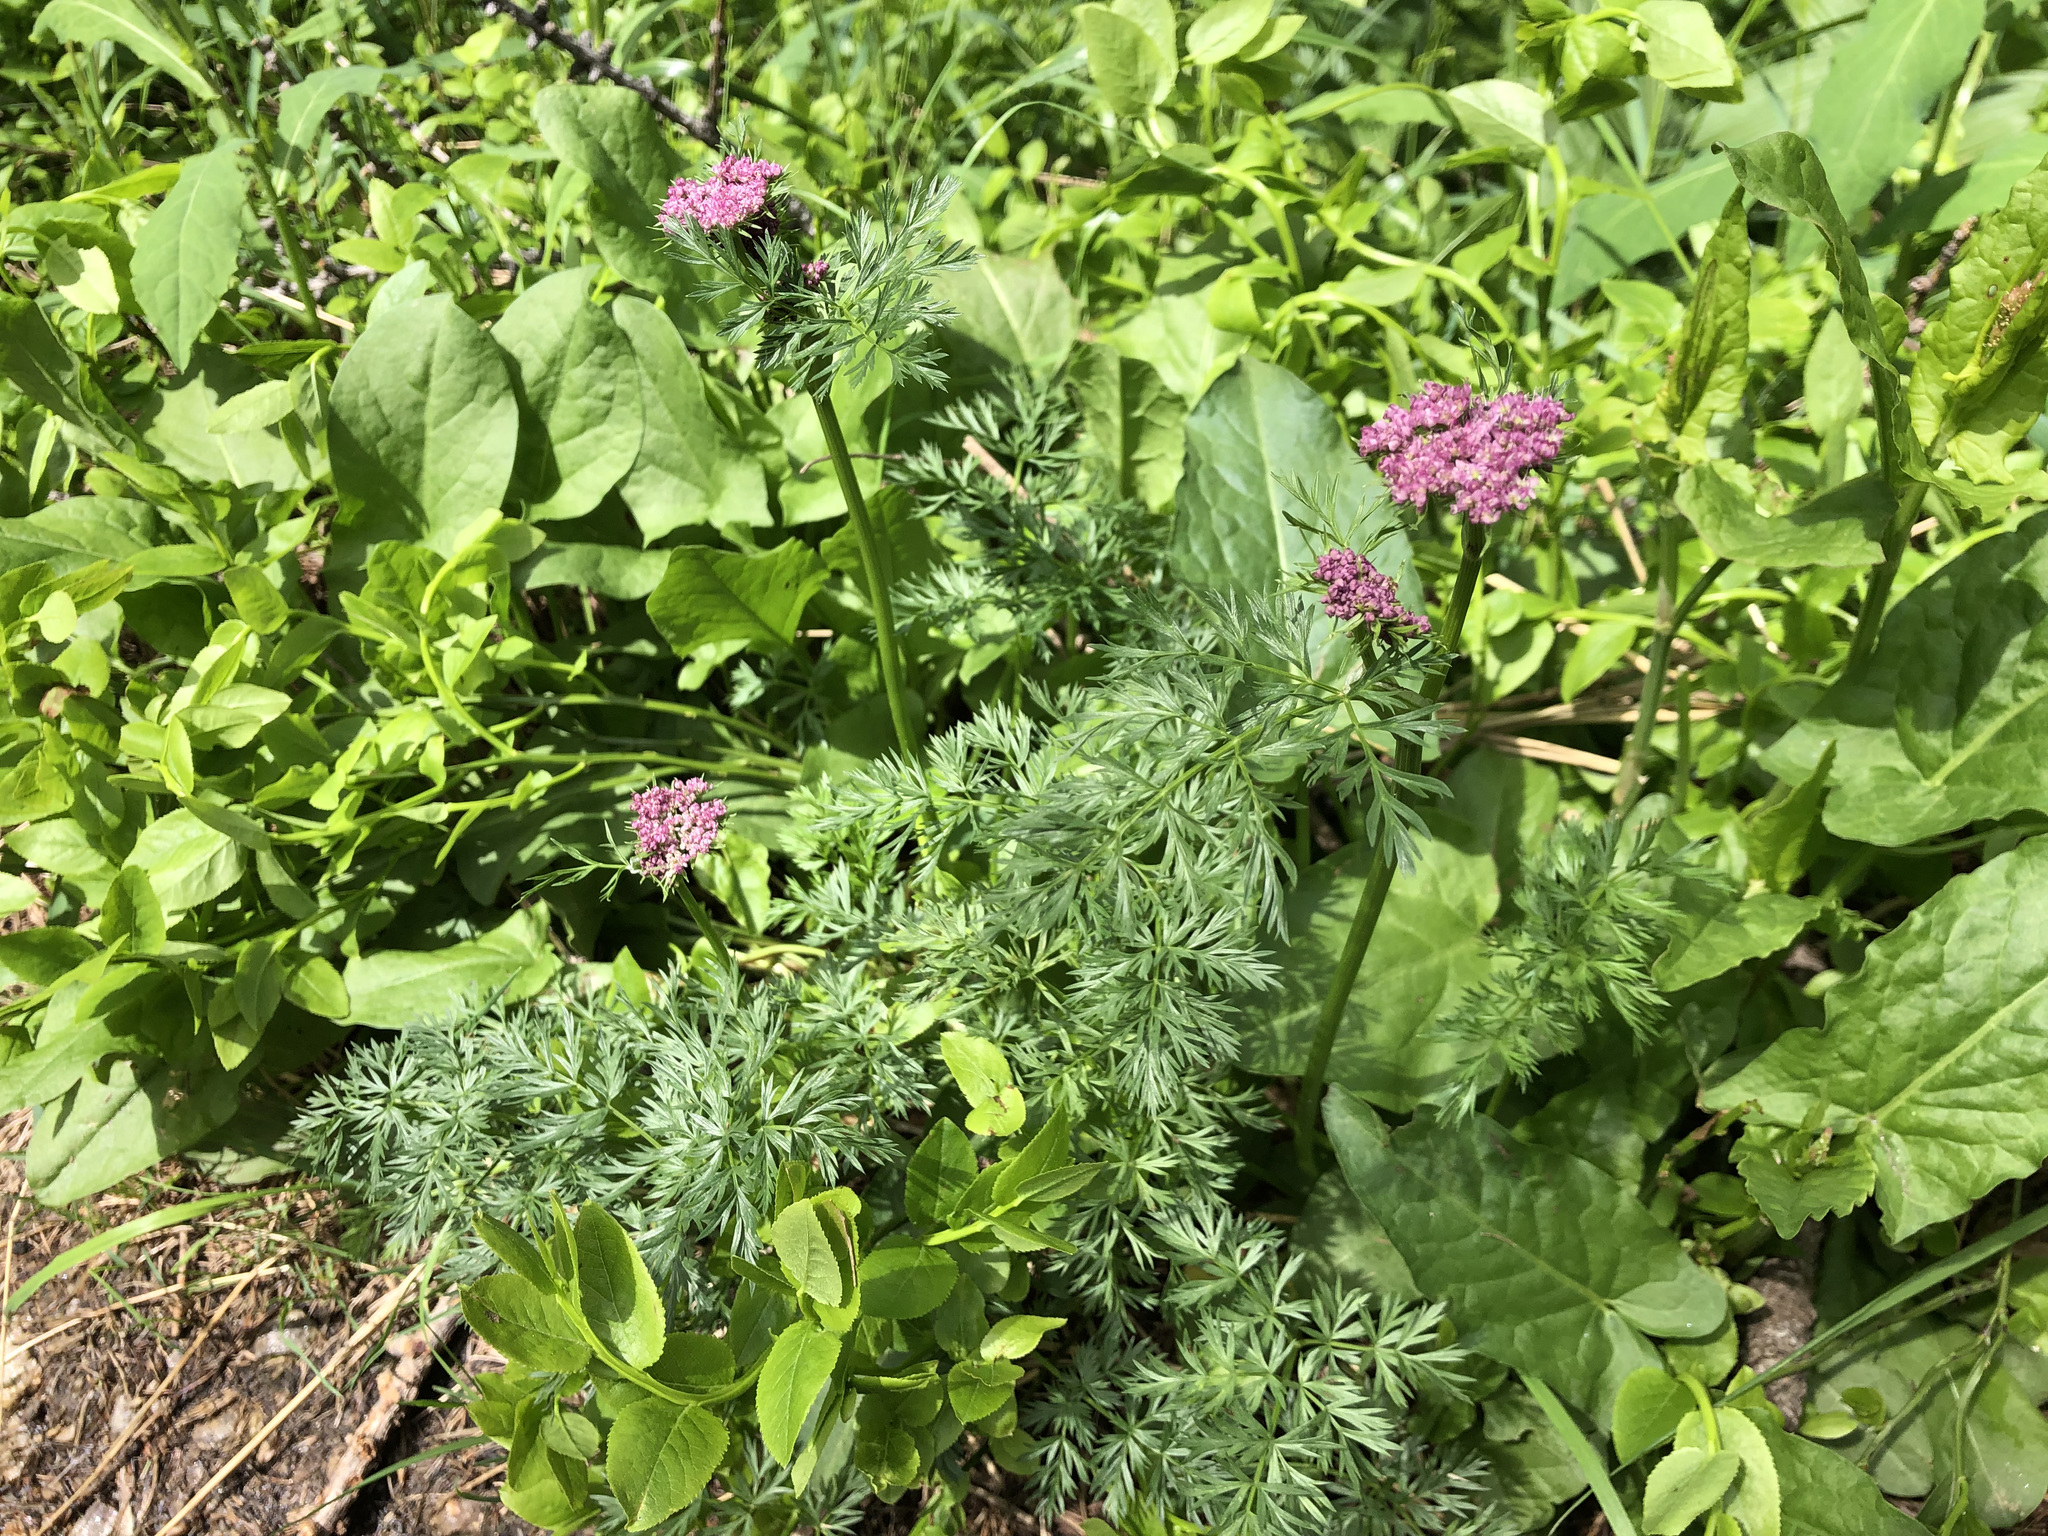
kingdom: Plantae
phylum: Tracheophyta
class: Magnoliopsida
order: Apiales
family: Apiaceae
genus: Mutellina
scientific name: Mutellina adonidifolia
